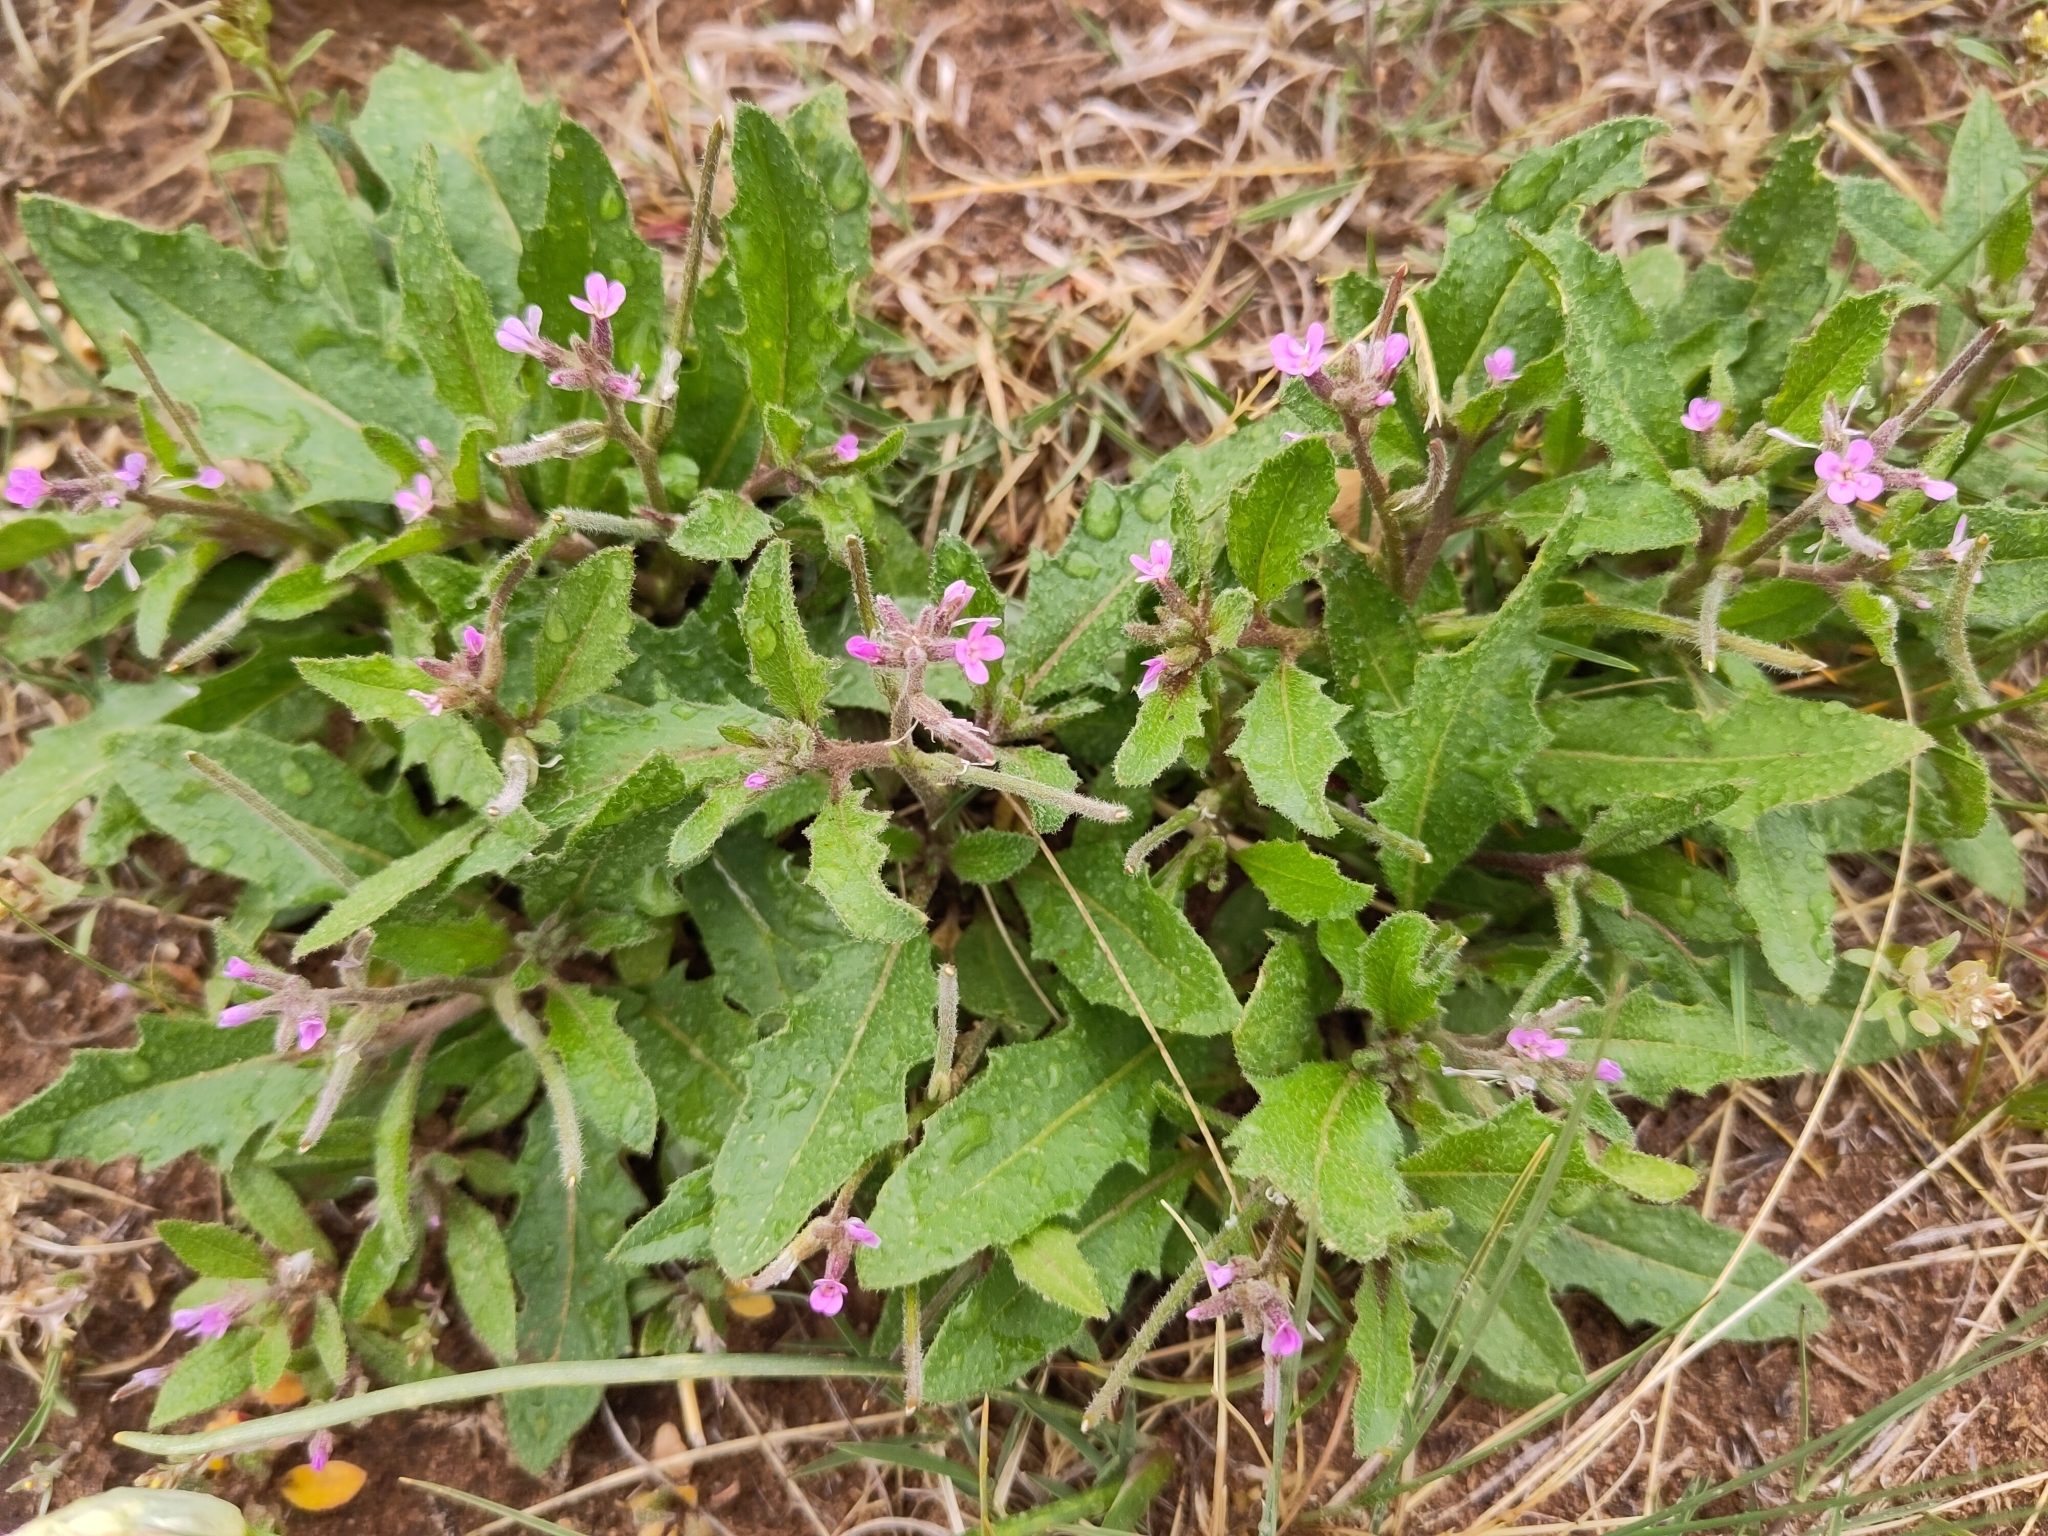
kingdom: Plantae
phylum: Tracheophyta
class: Magnoliopsida
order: Brassicales
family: Brassicaceae
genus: Strigosella
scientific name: Strigosella africana
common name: African mustard
